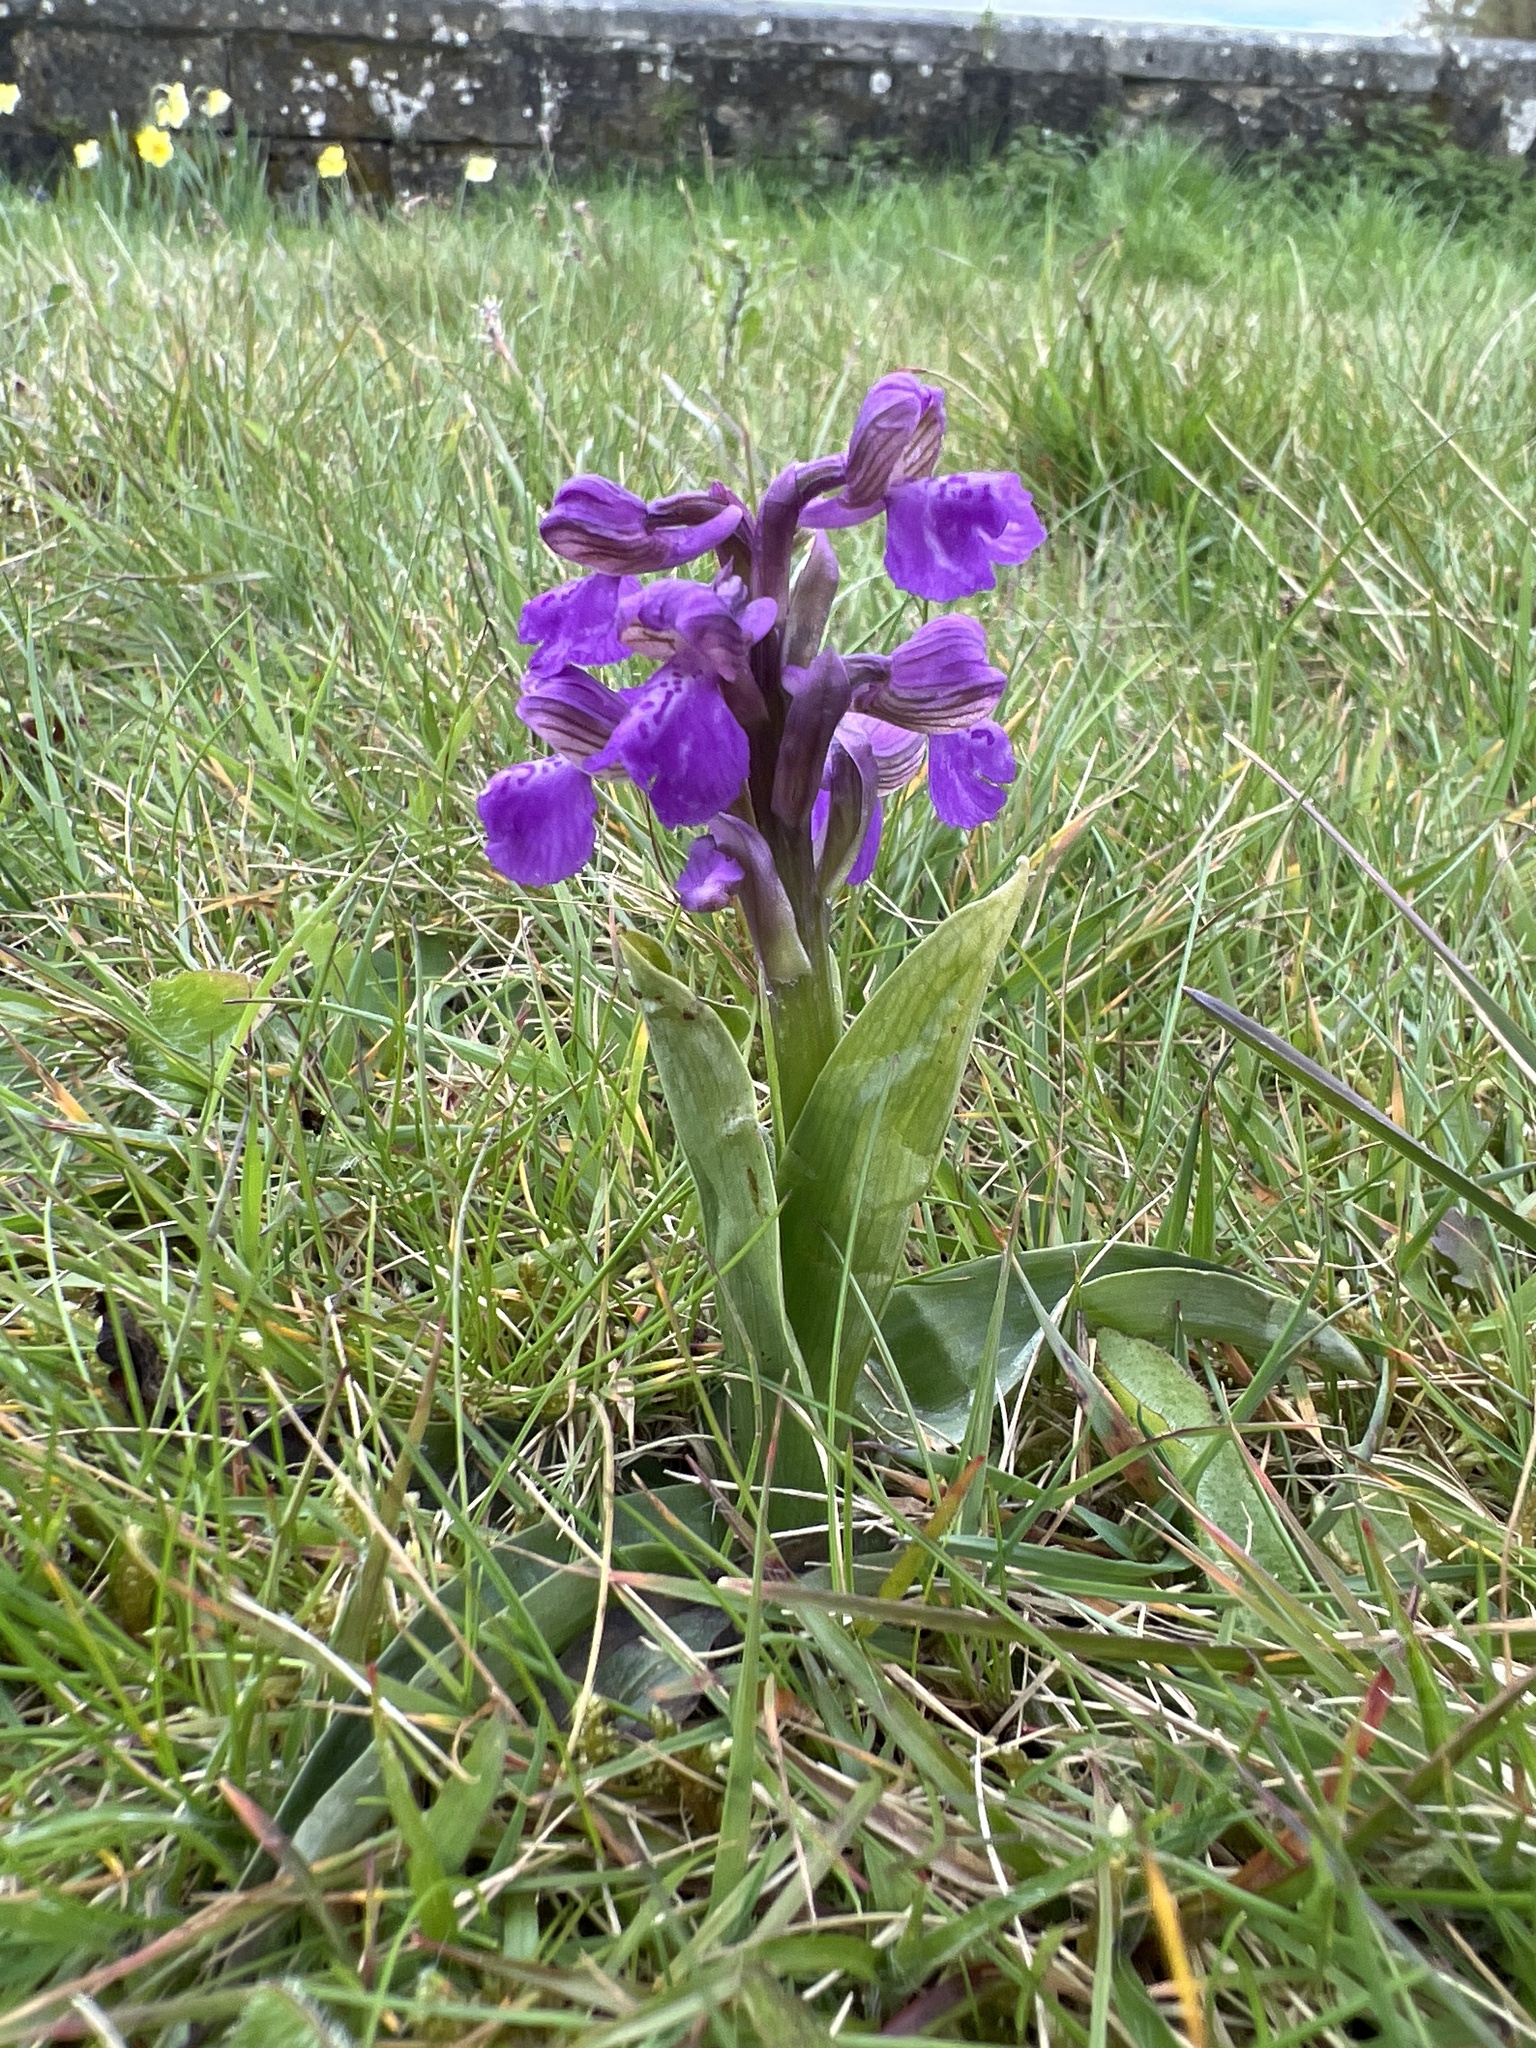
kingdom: Plantae
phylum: Tracheophyta
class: Liliopsida
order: Asparagales
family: Orchidaceae
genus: Anacamptis
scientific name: Anacamptis morio
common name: Green-winged orchid
